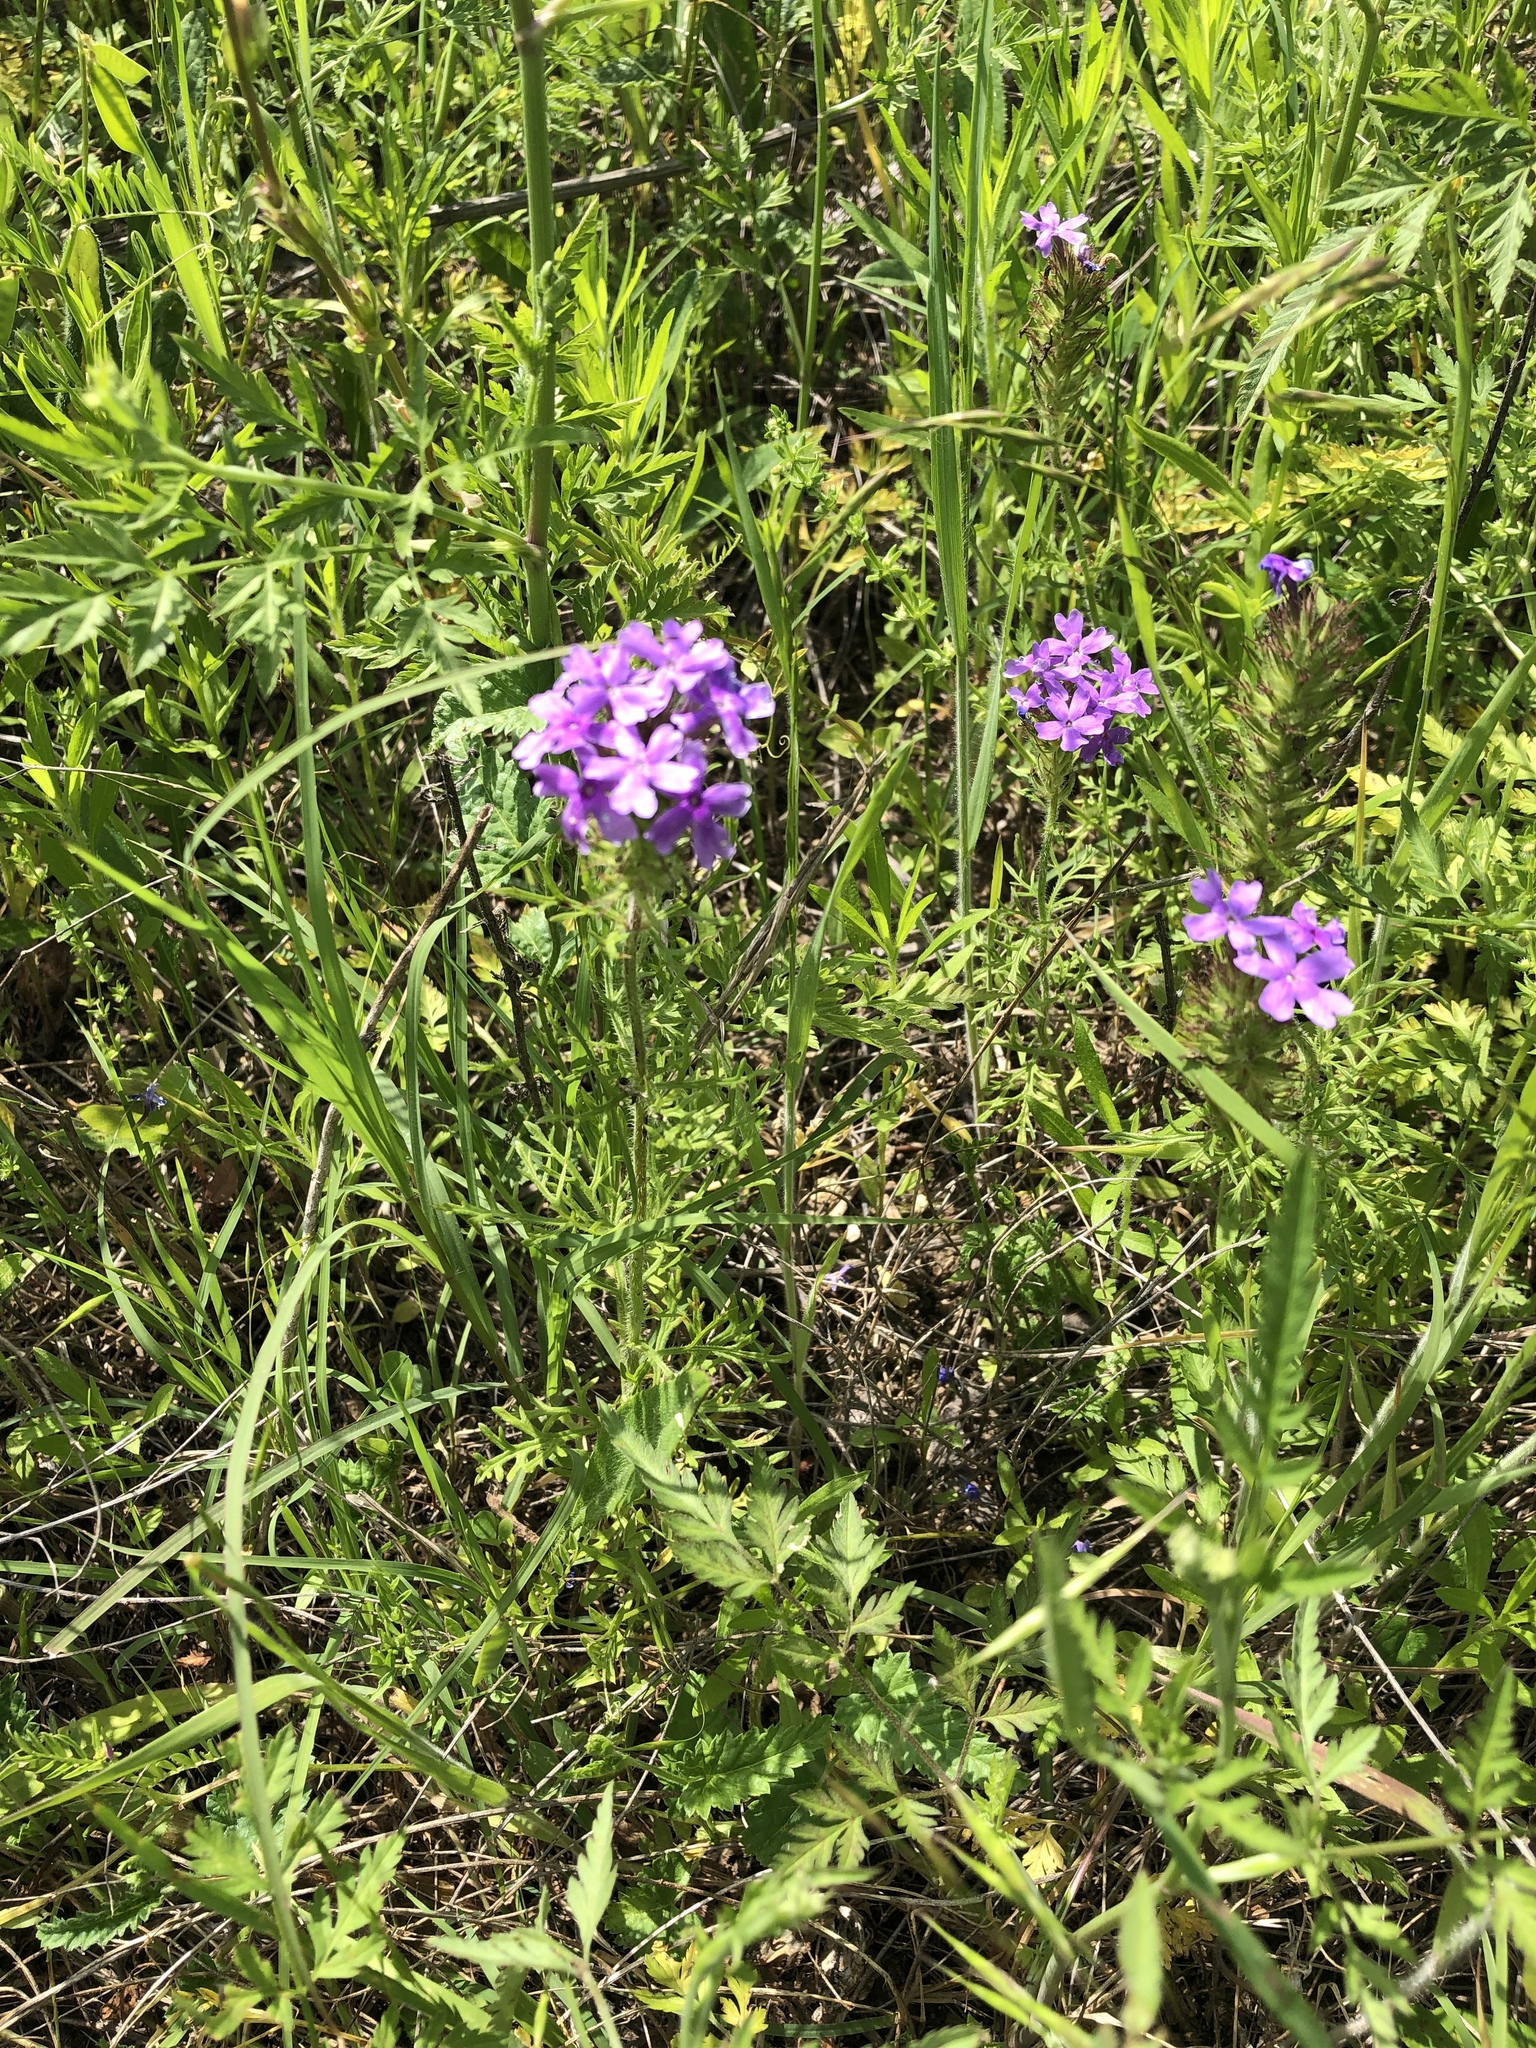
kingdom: Plantae
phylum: Tracheophyta
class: Magnoliopsida
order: Lamiales
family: Verbenaceae
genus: Verbena
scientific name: Verbena bipinnatifida
